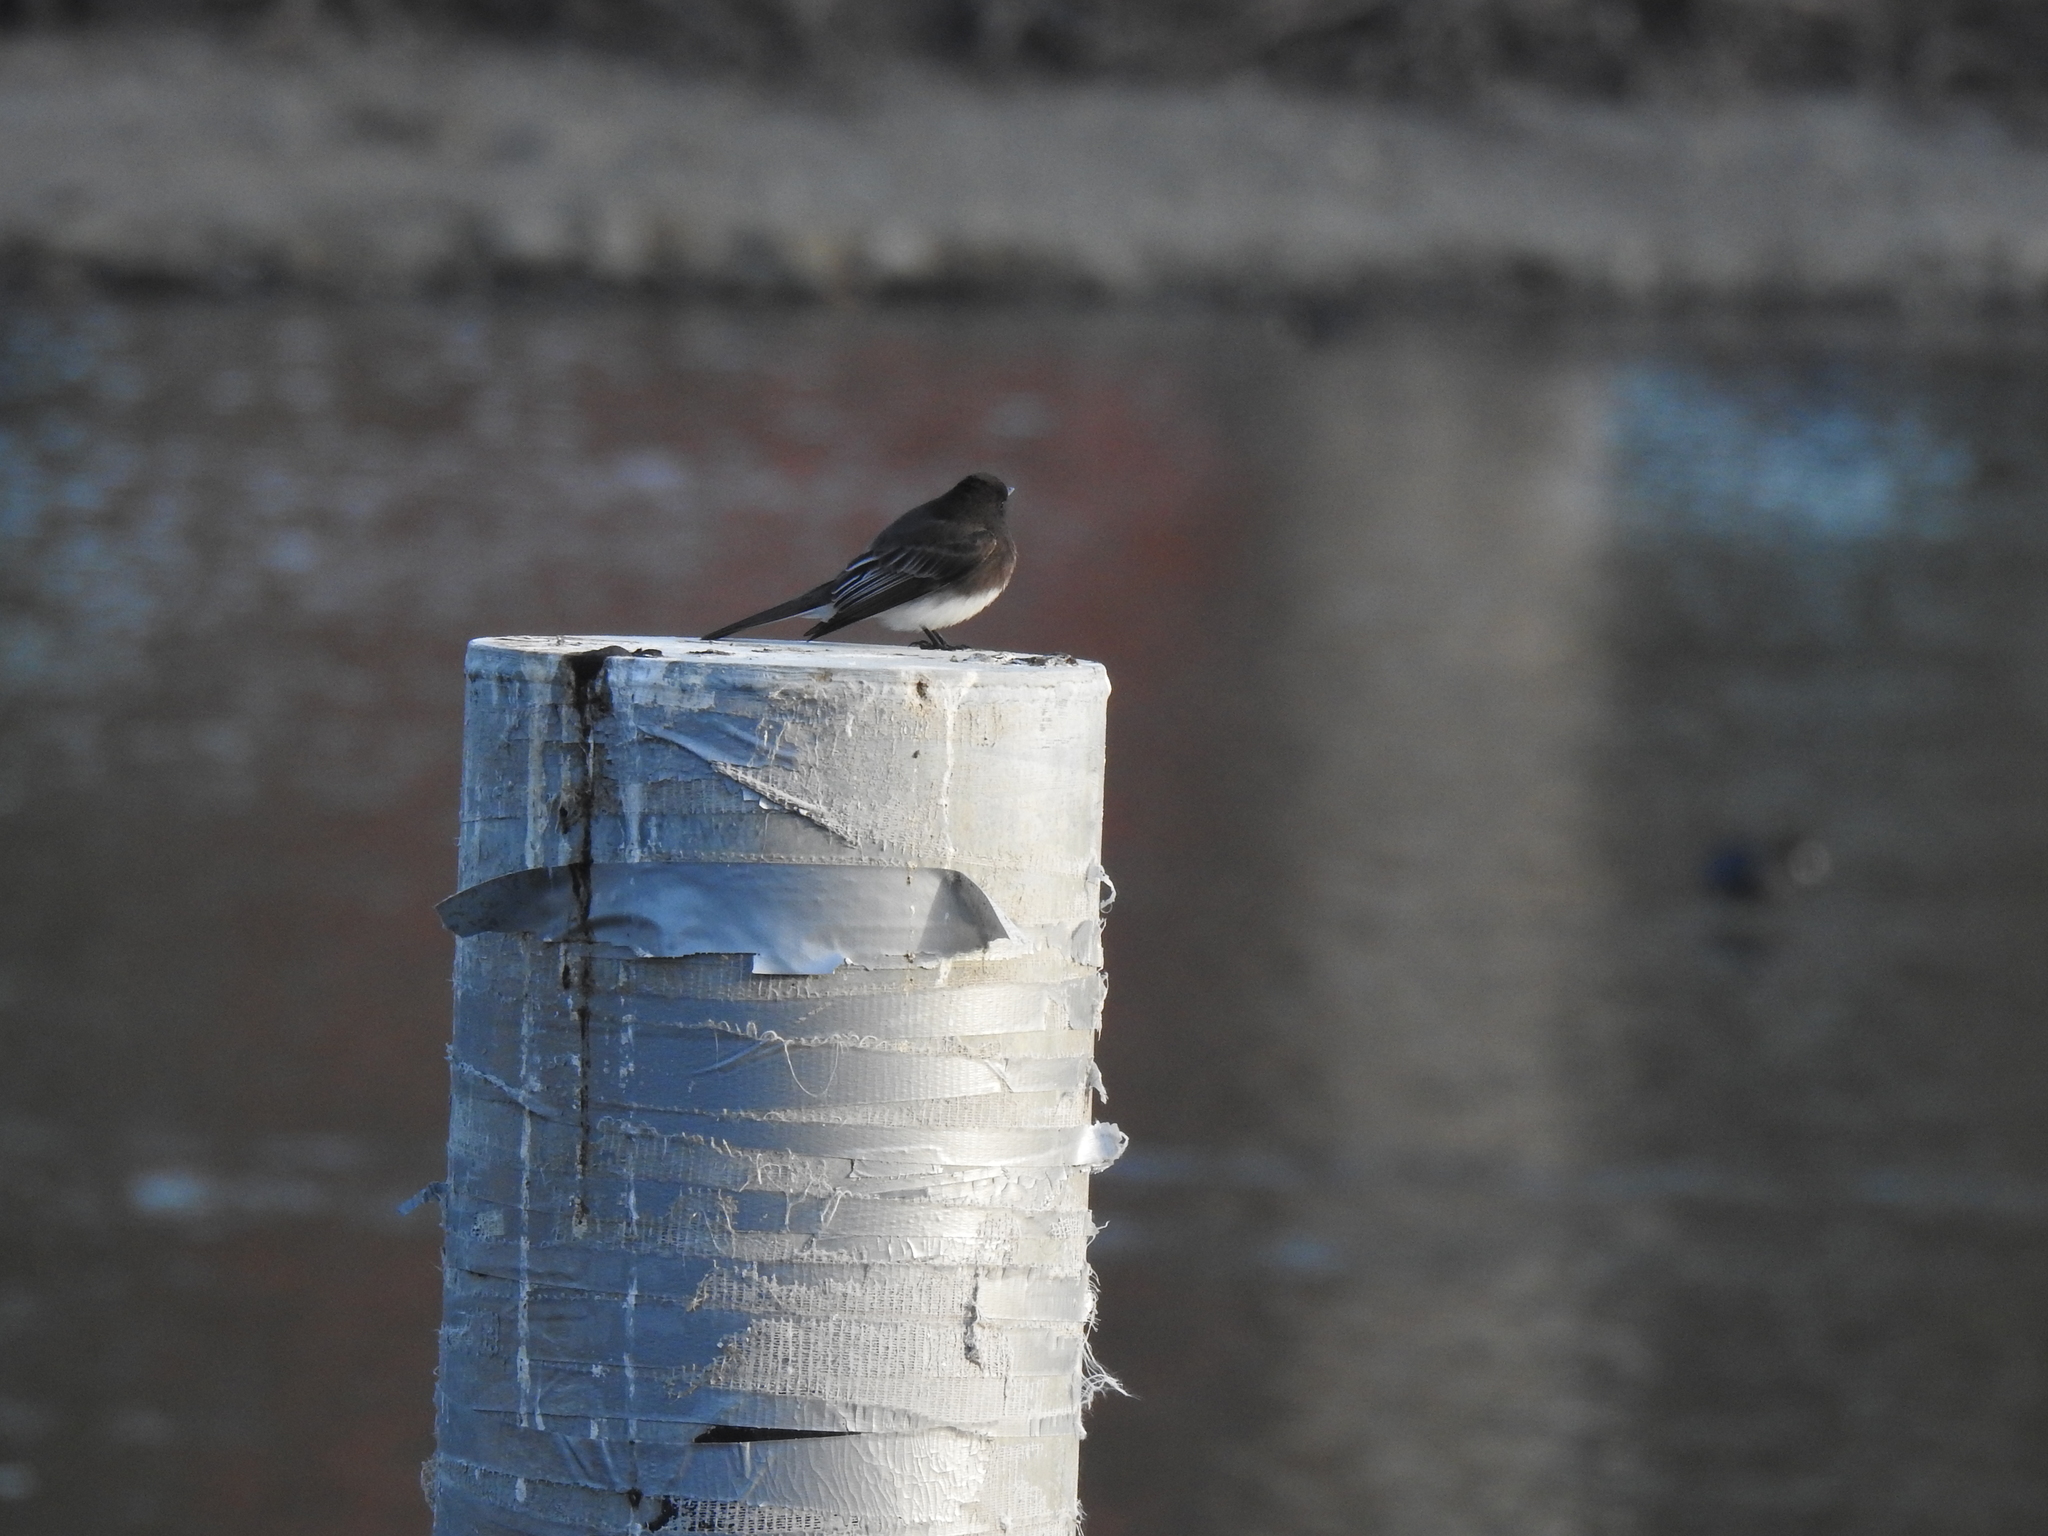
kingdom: Animalia
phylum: Chordata
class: Aves
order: Passeriformes
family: Tyrannidae
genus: Sayornis
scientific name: Sayornis nigricans
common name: Black phoebe
